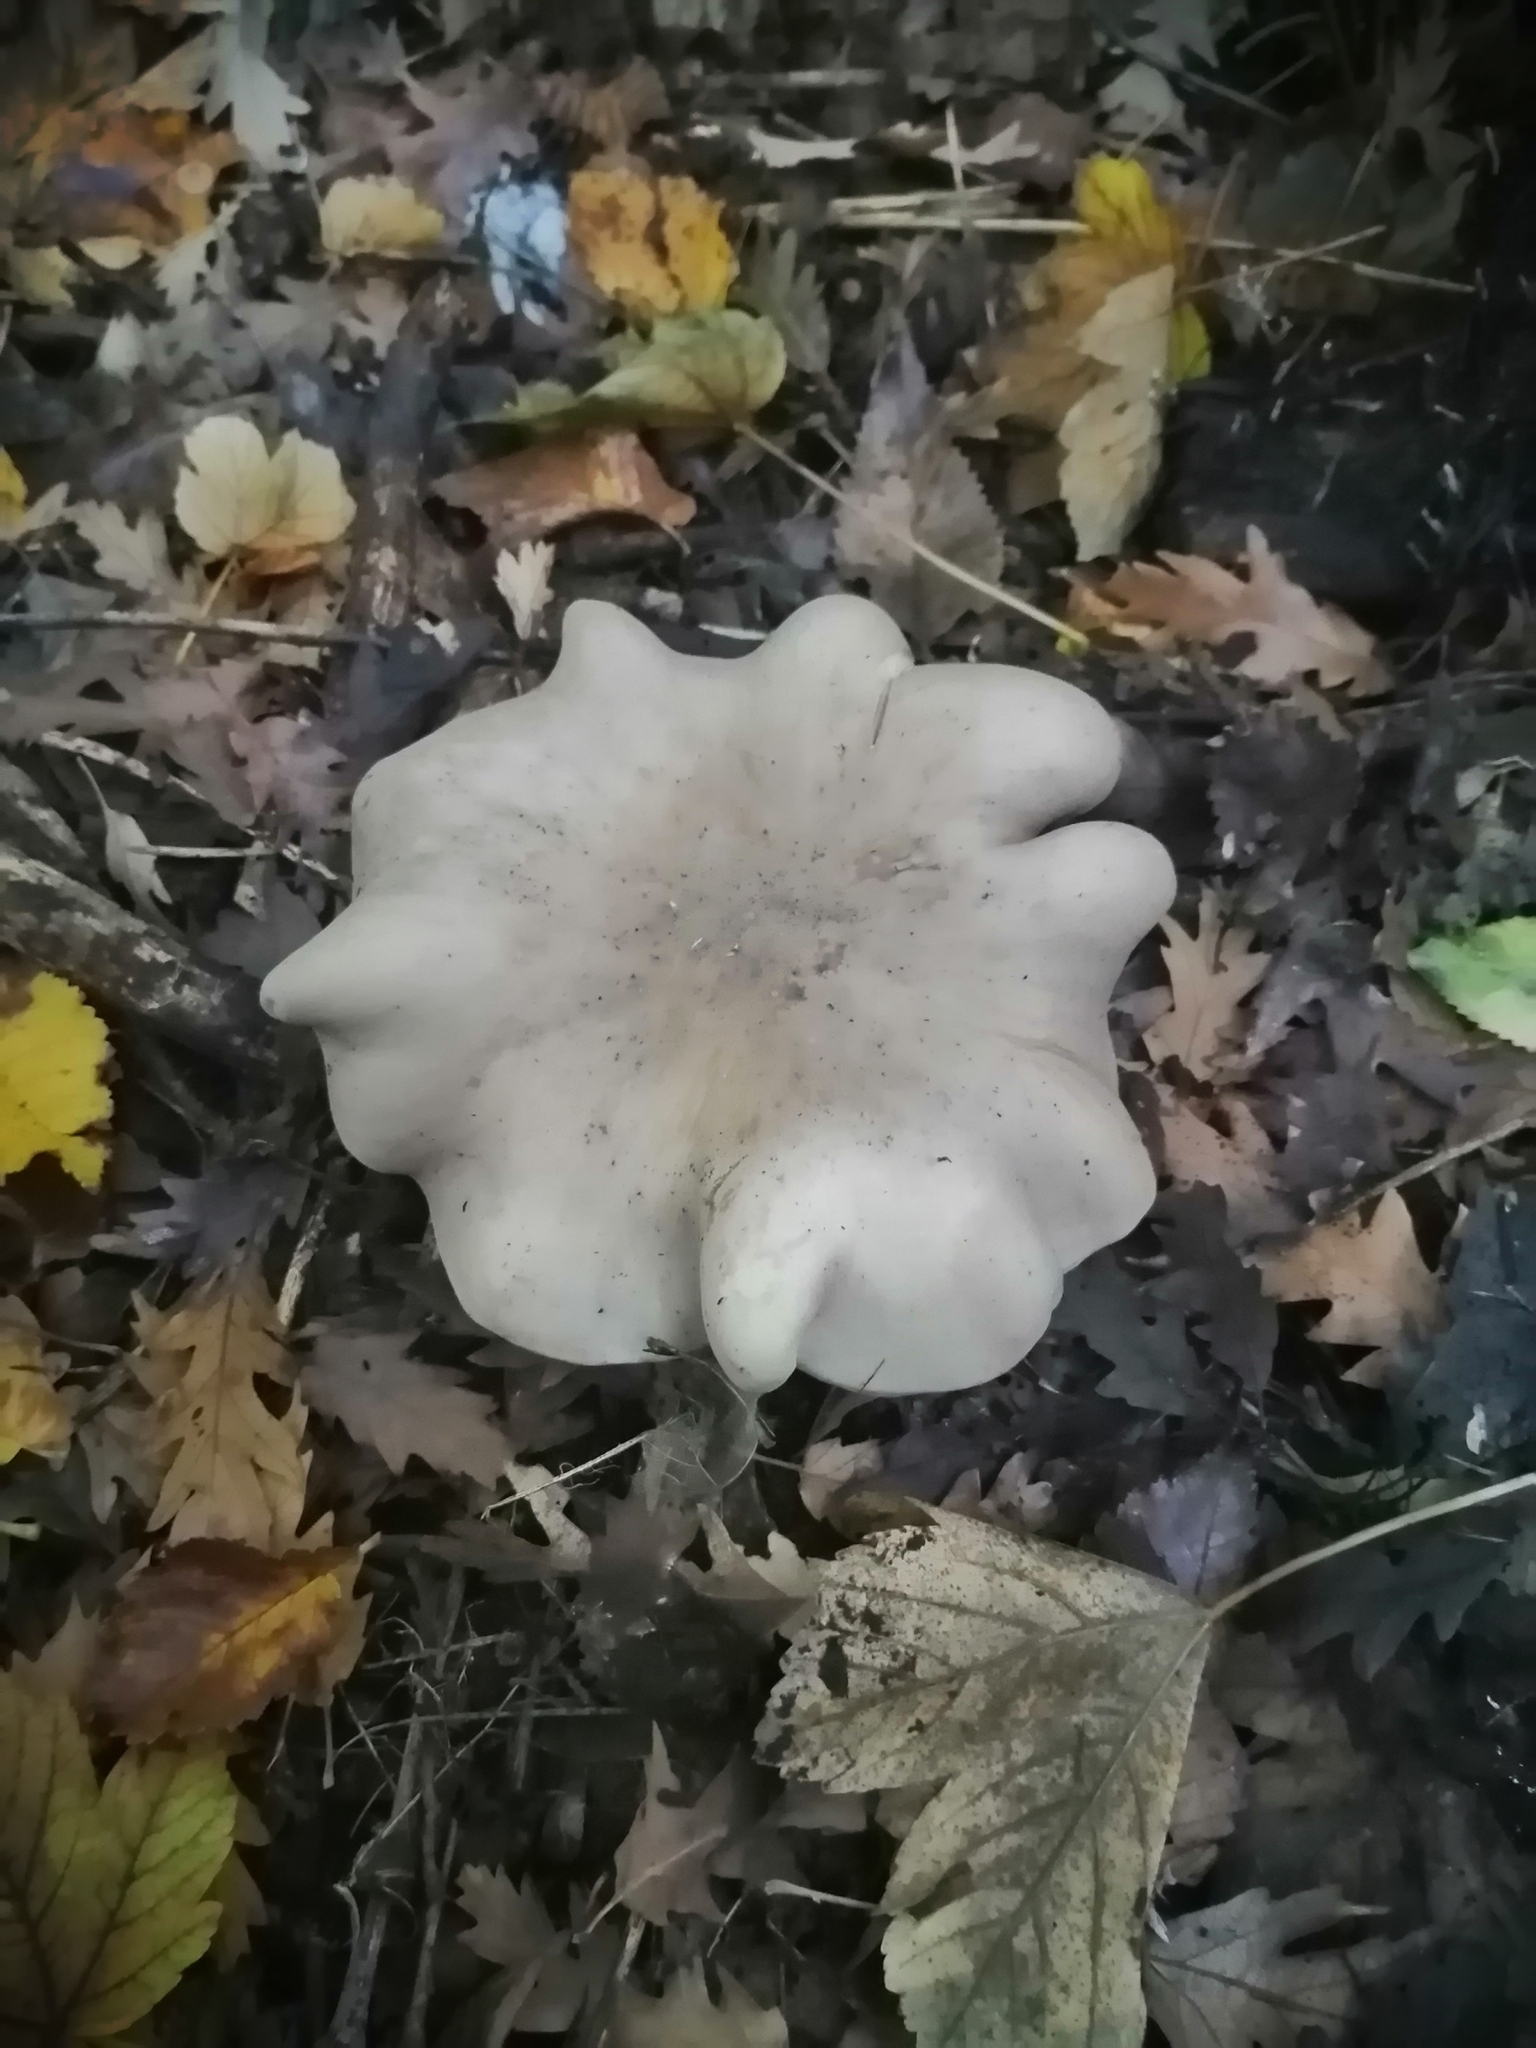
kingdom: Fungi
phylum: Basidiomycota
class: Agaricomycetes
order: Agaricales
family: Tricholomataceae
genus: Clitocybe
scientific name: Clitocybe nebularis
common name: Clouded agaric
